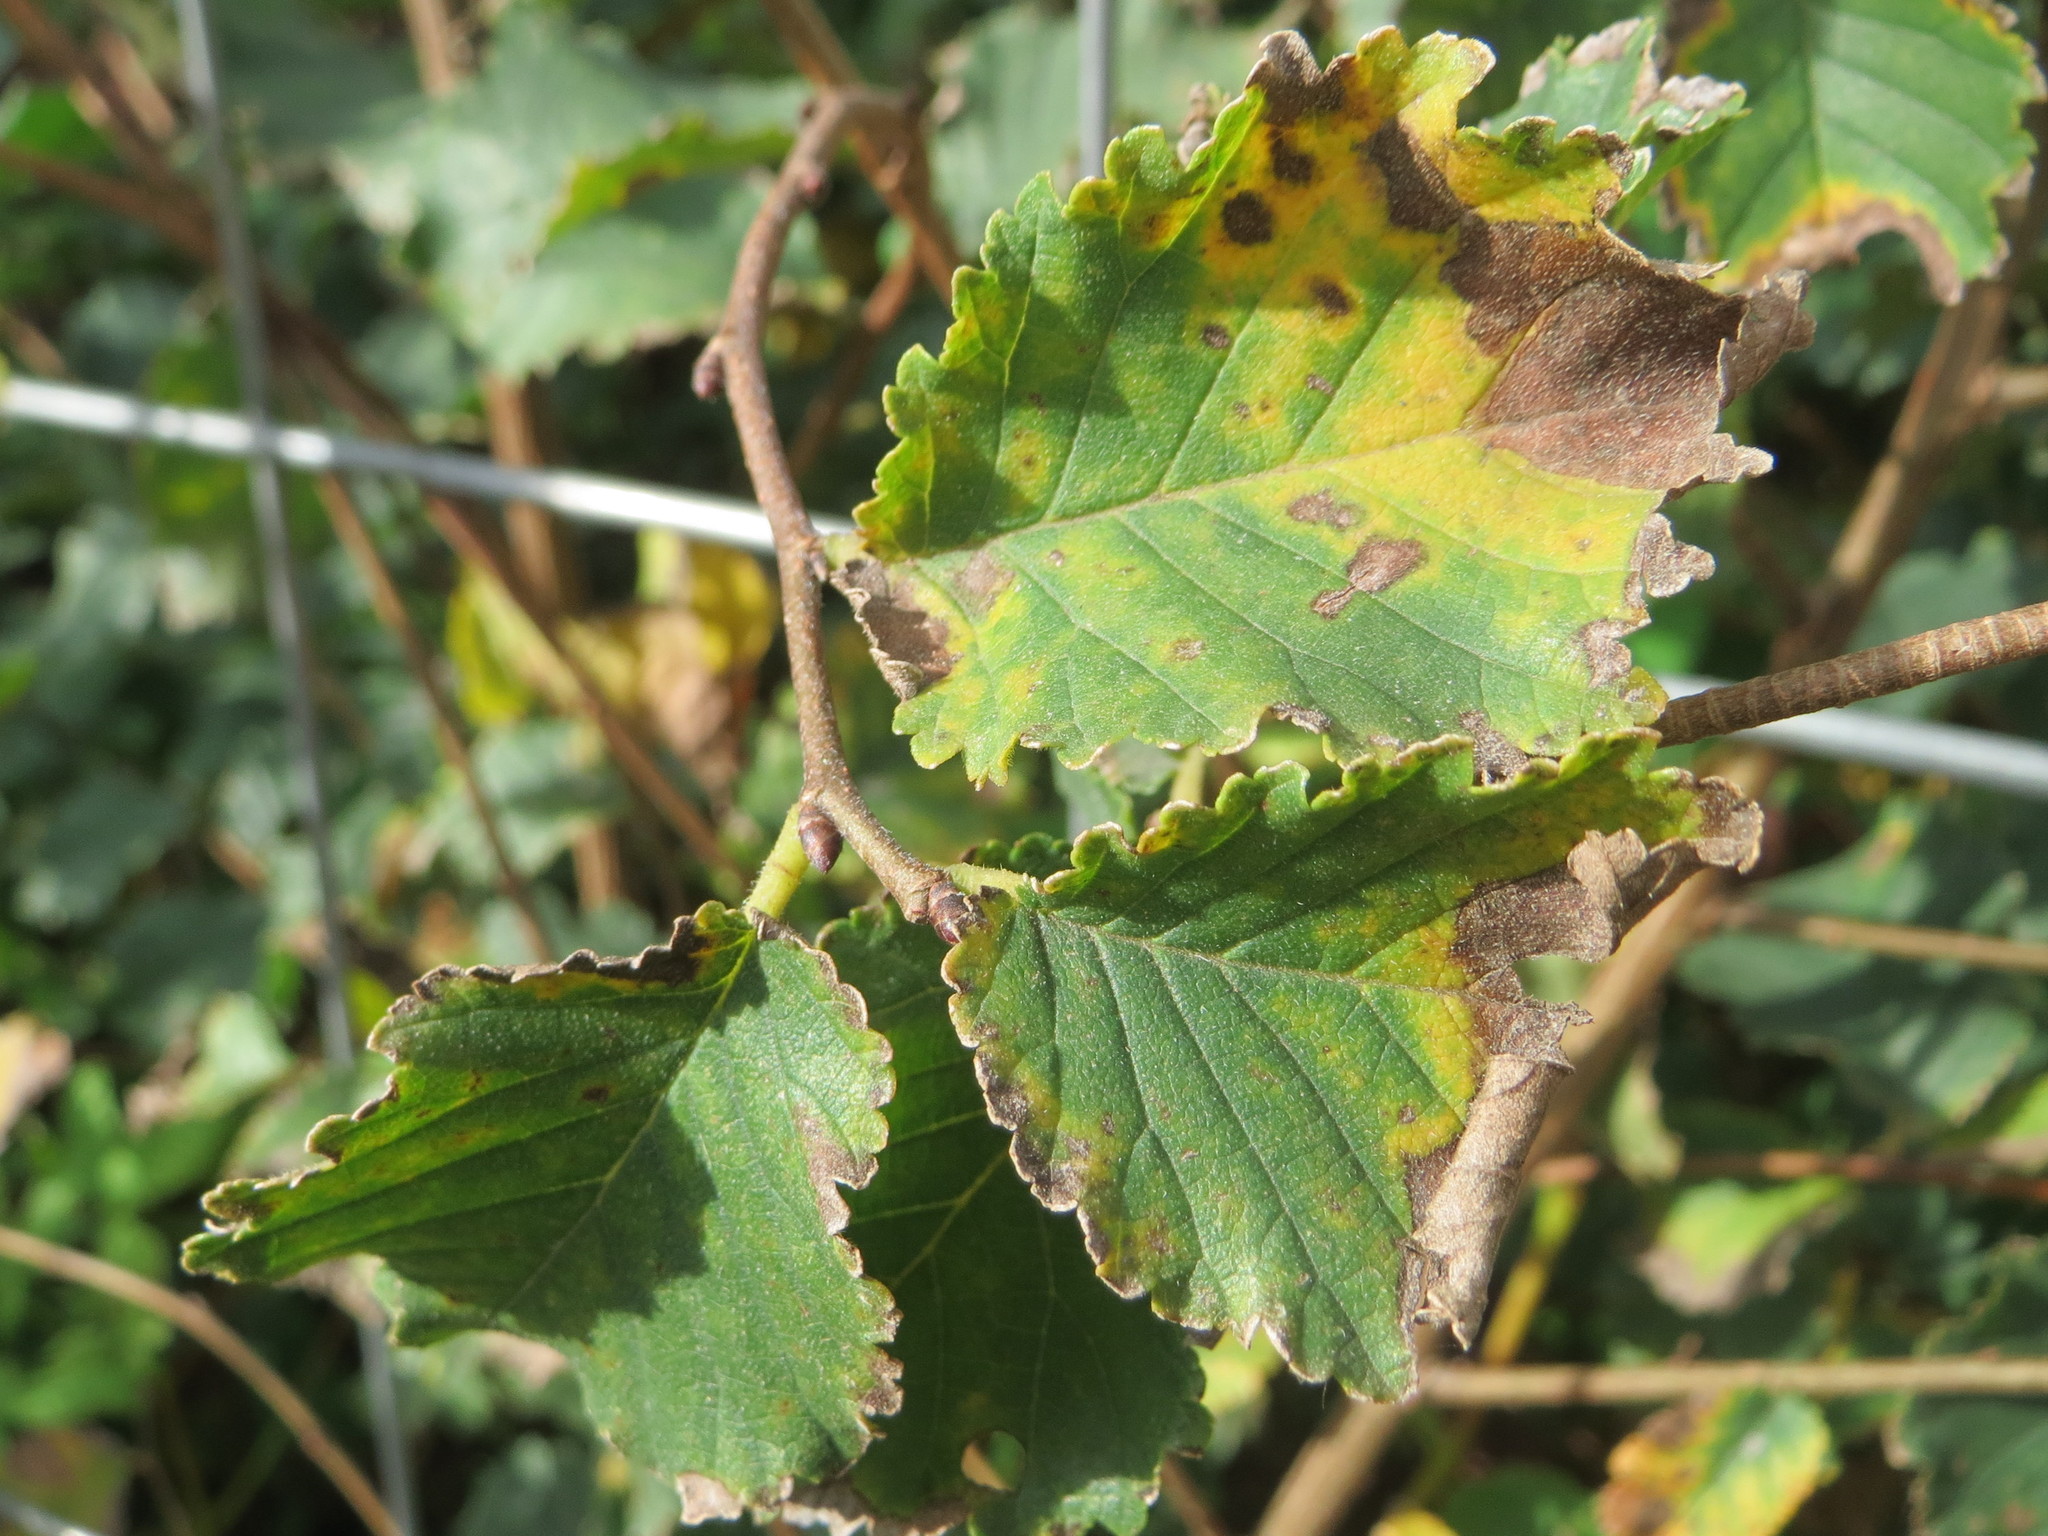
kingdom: Plantae
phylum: Tracheophyta
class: Magnoliopsida
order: Rosales
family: Ulmaceae
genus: Ulmus
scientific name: Ulmus minor
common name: Small-leaved elm
